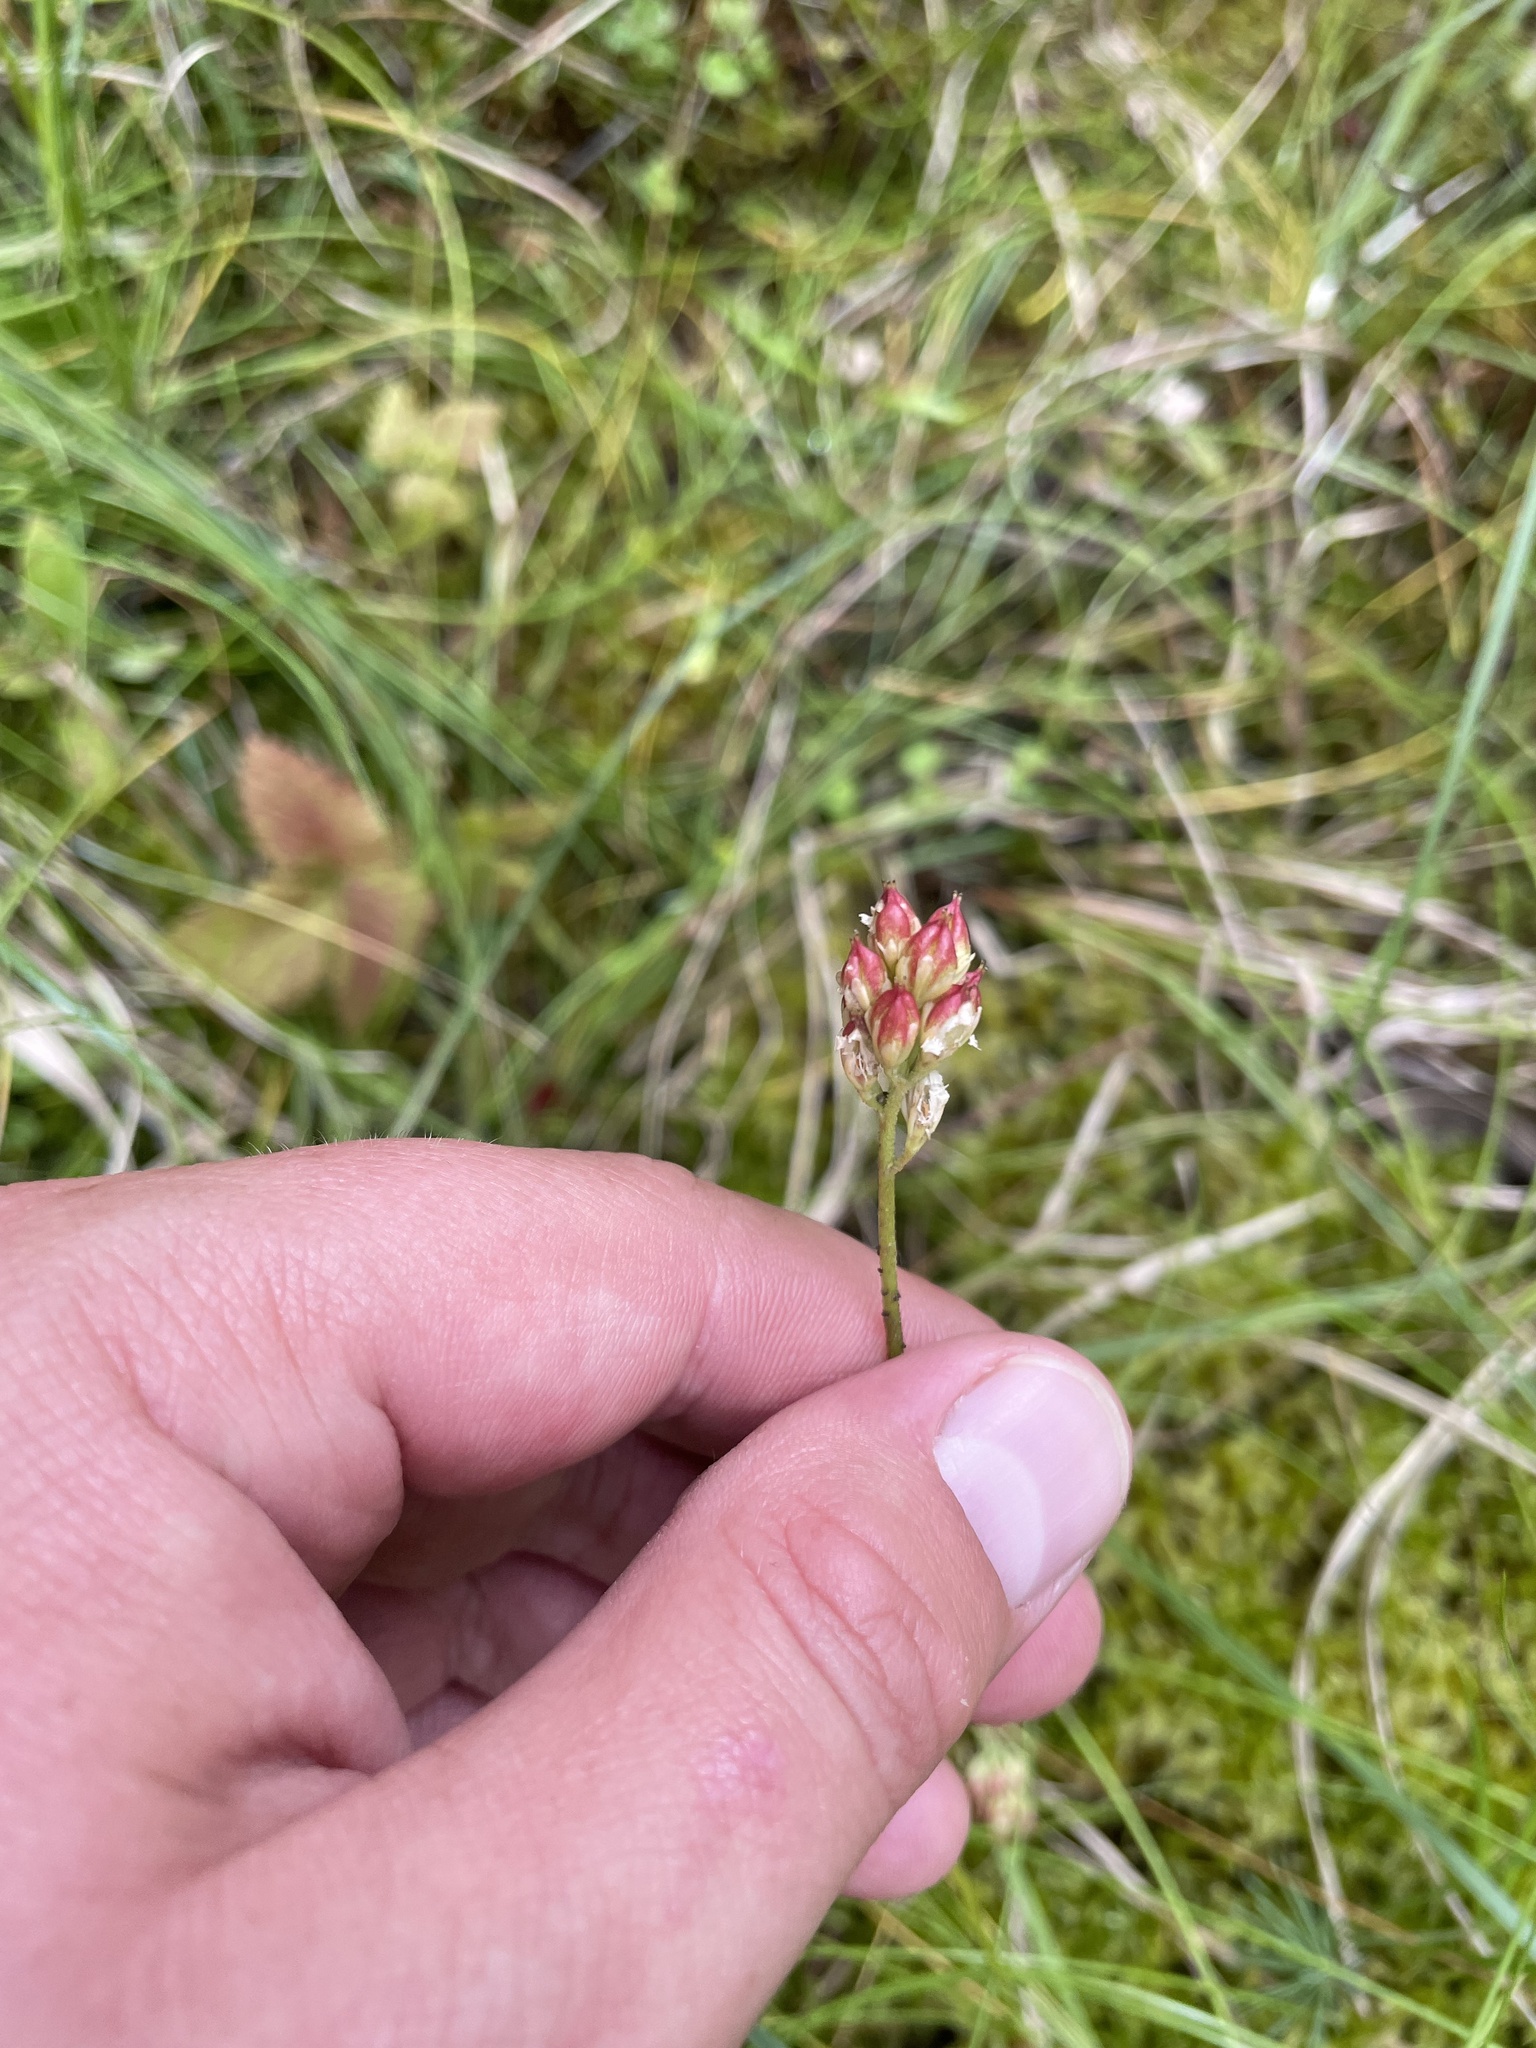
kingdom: Plantae
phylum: Tracheophyta
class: Liliopsida
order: Alismatales
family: Tofieldiaceae
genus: Triantha
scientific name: Triantha glutinosa
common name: Glutinous tofieldia
